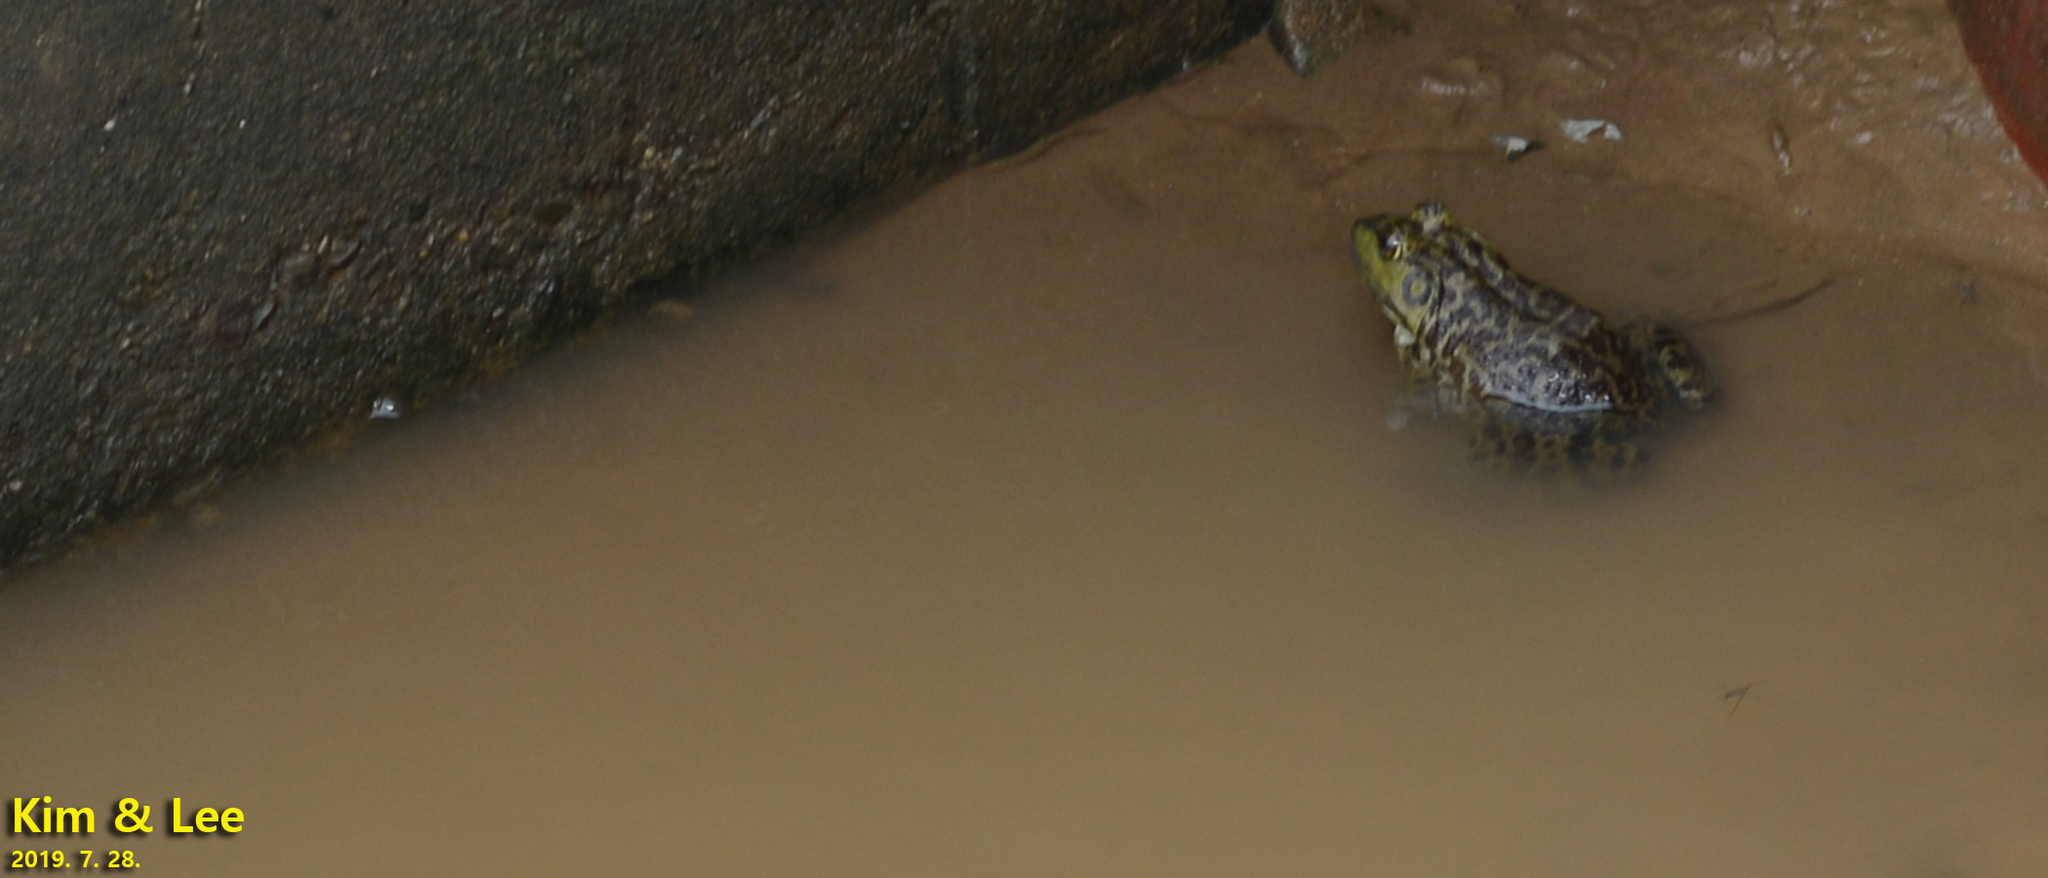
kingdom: Animalia
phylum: Chordata
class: Amphibia
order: Anura
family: Ranidae
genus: Lithobates
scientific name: Lithobates catesbeianus
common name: American bullfrog
